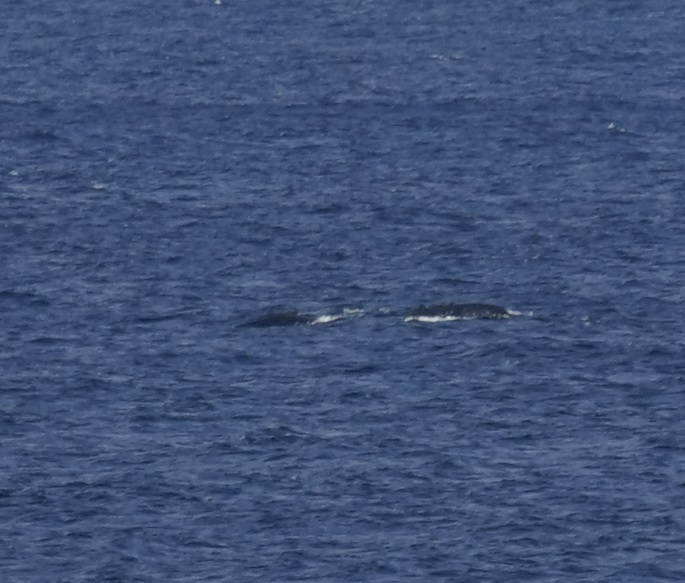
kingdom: Animalia
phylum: Chordata
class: Mammalia
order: Cetacea
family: Balaenopteridae
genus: Megaptera
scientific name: Megaptera novaeangliae
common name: Humpback whale
